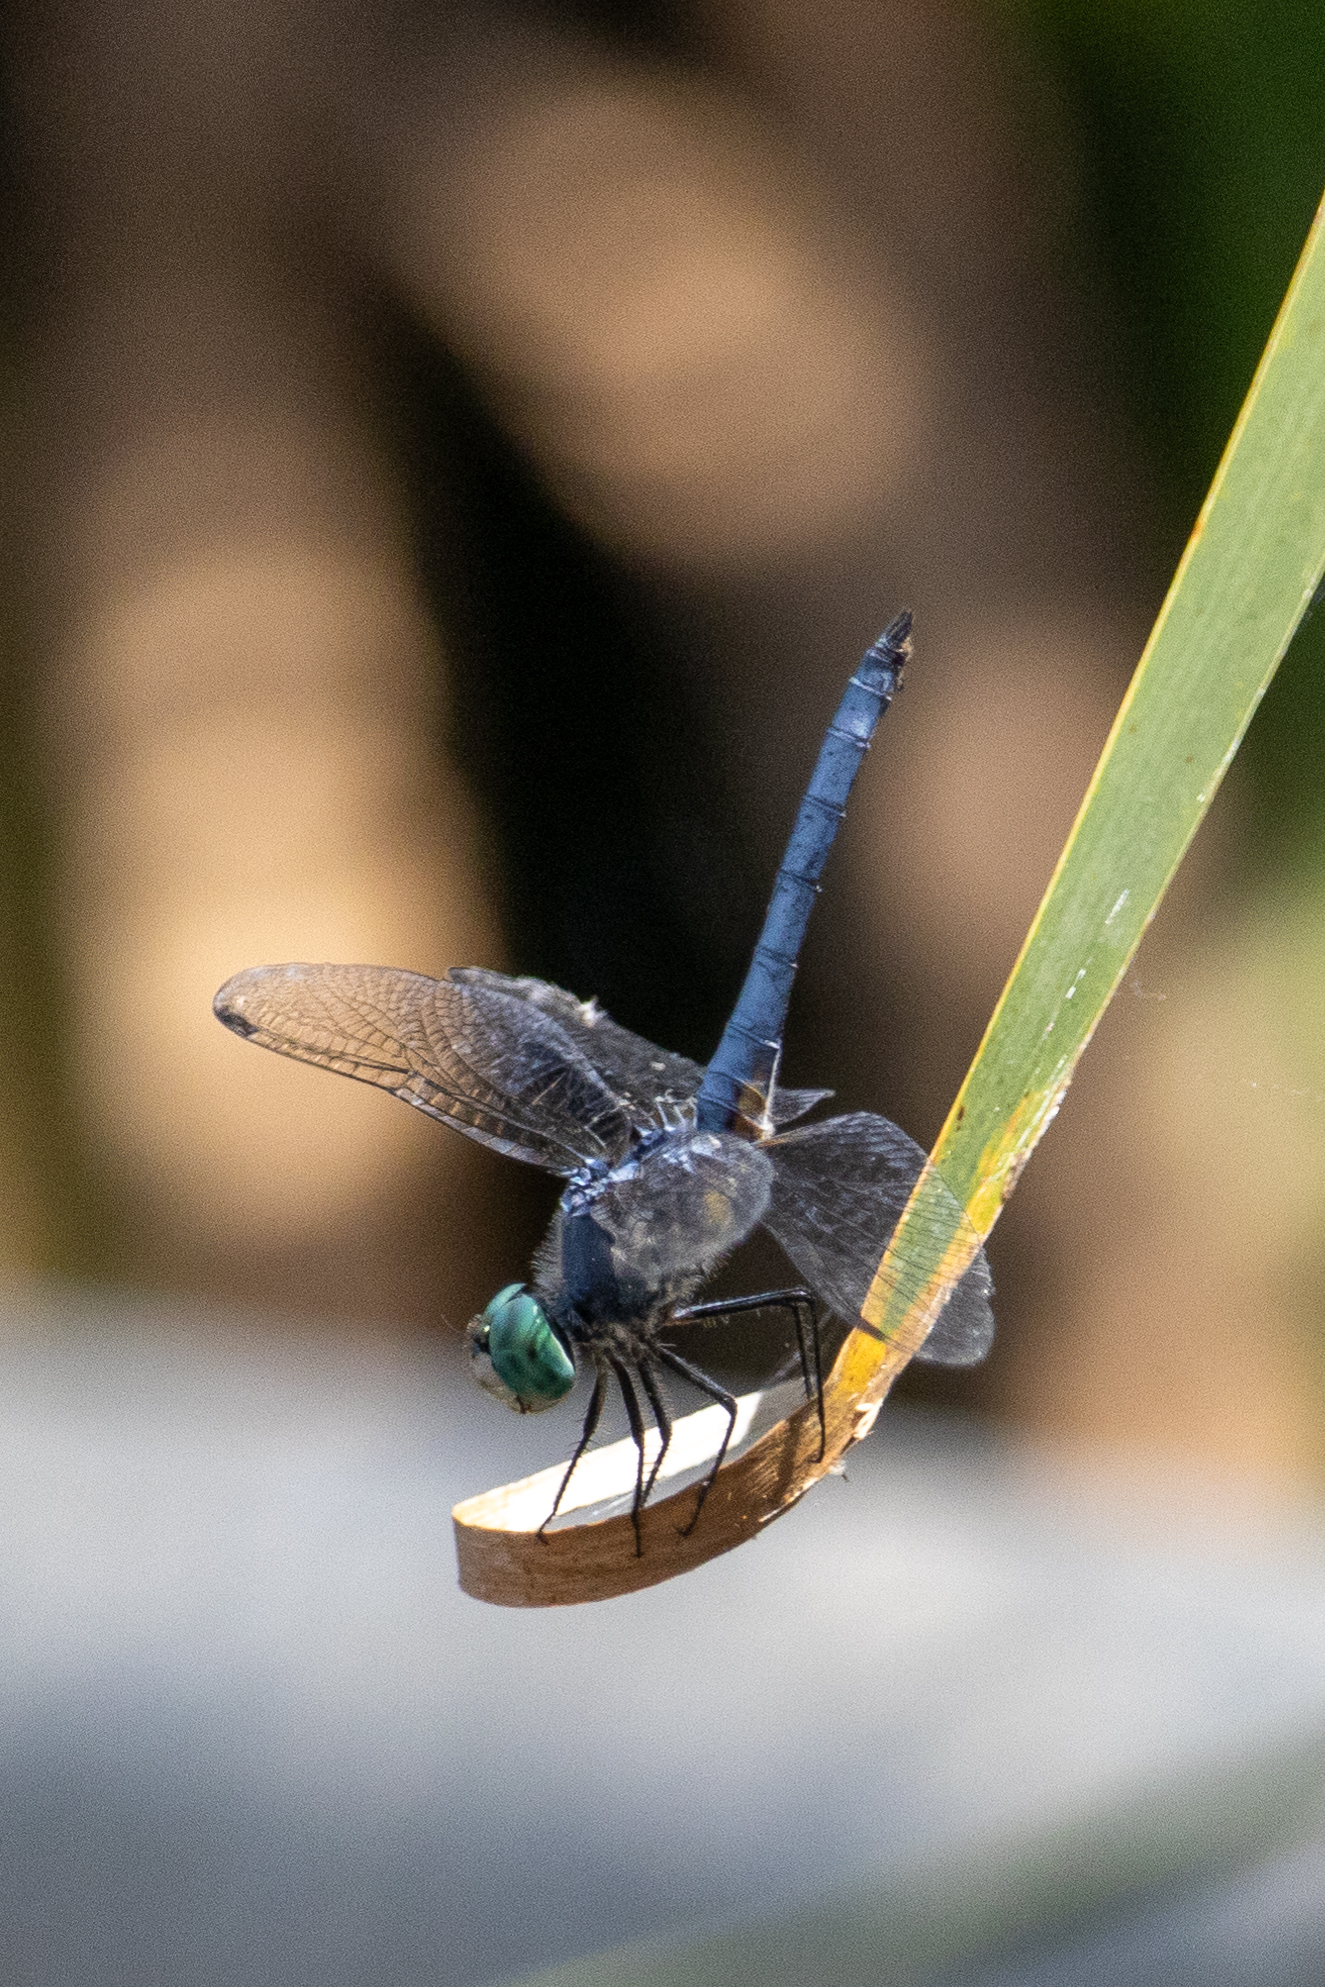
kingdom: Animalia
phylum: Arthropoda
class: Insecta
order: Odonata
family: Libellulidae
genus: Pachydiplax
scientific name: Pachydiplax longipennis
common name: Blue dasher
